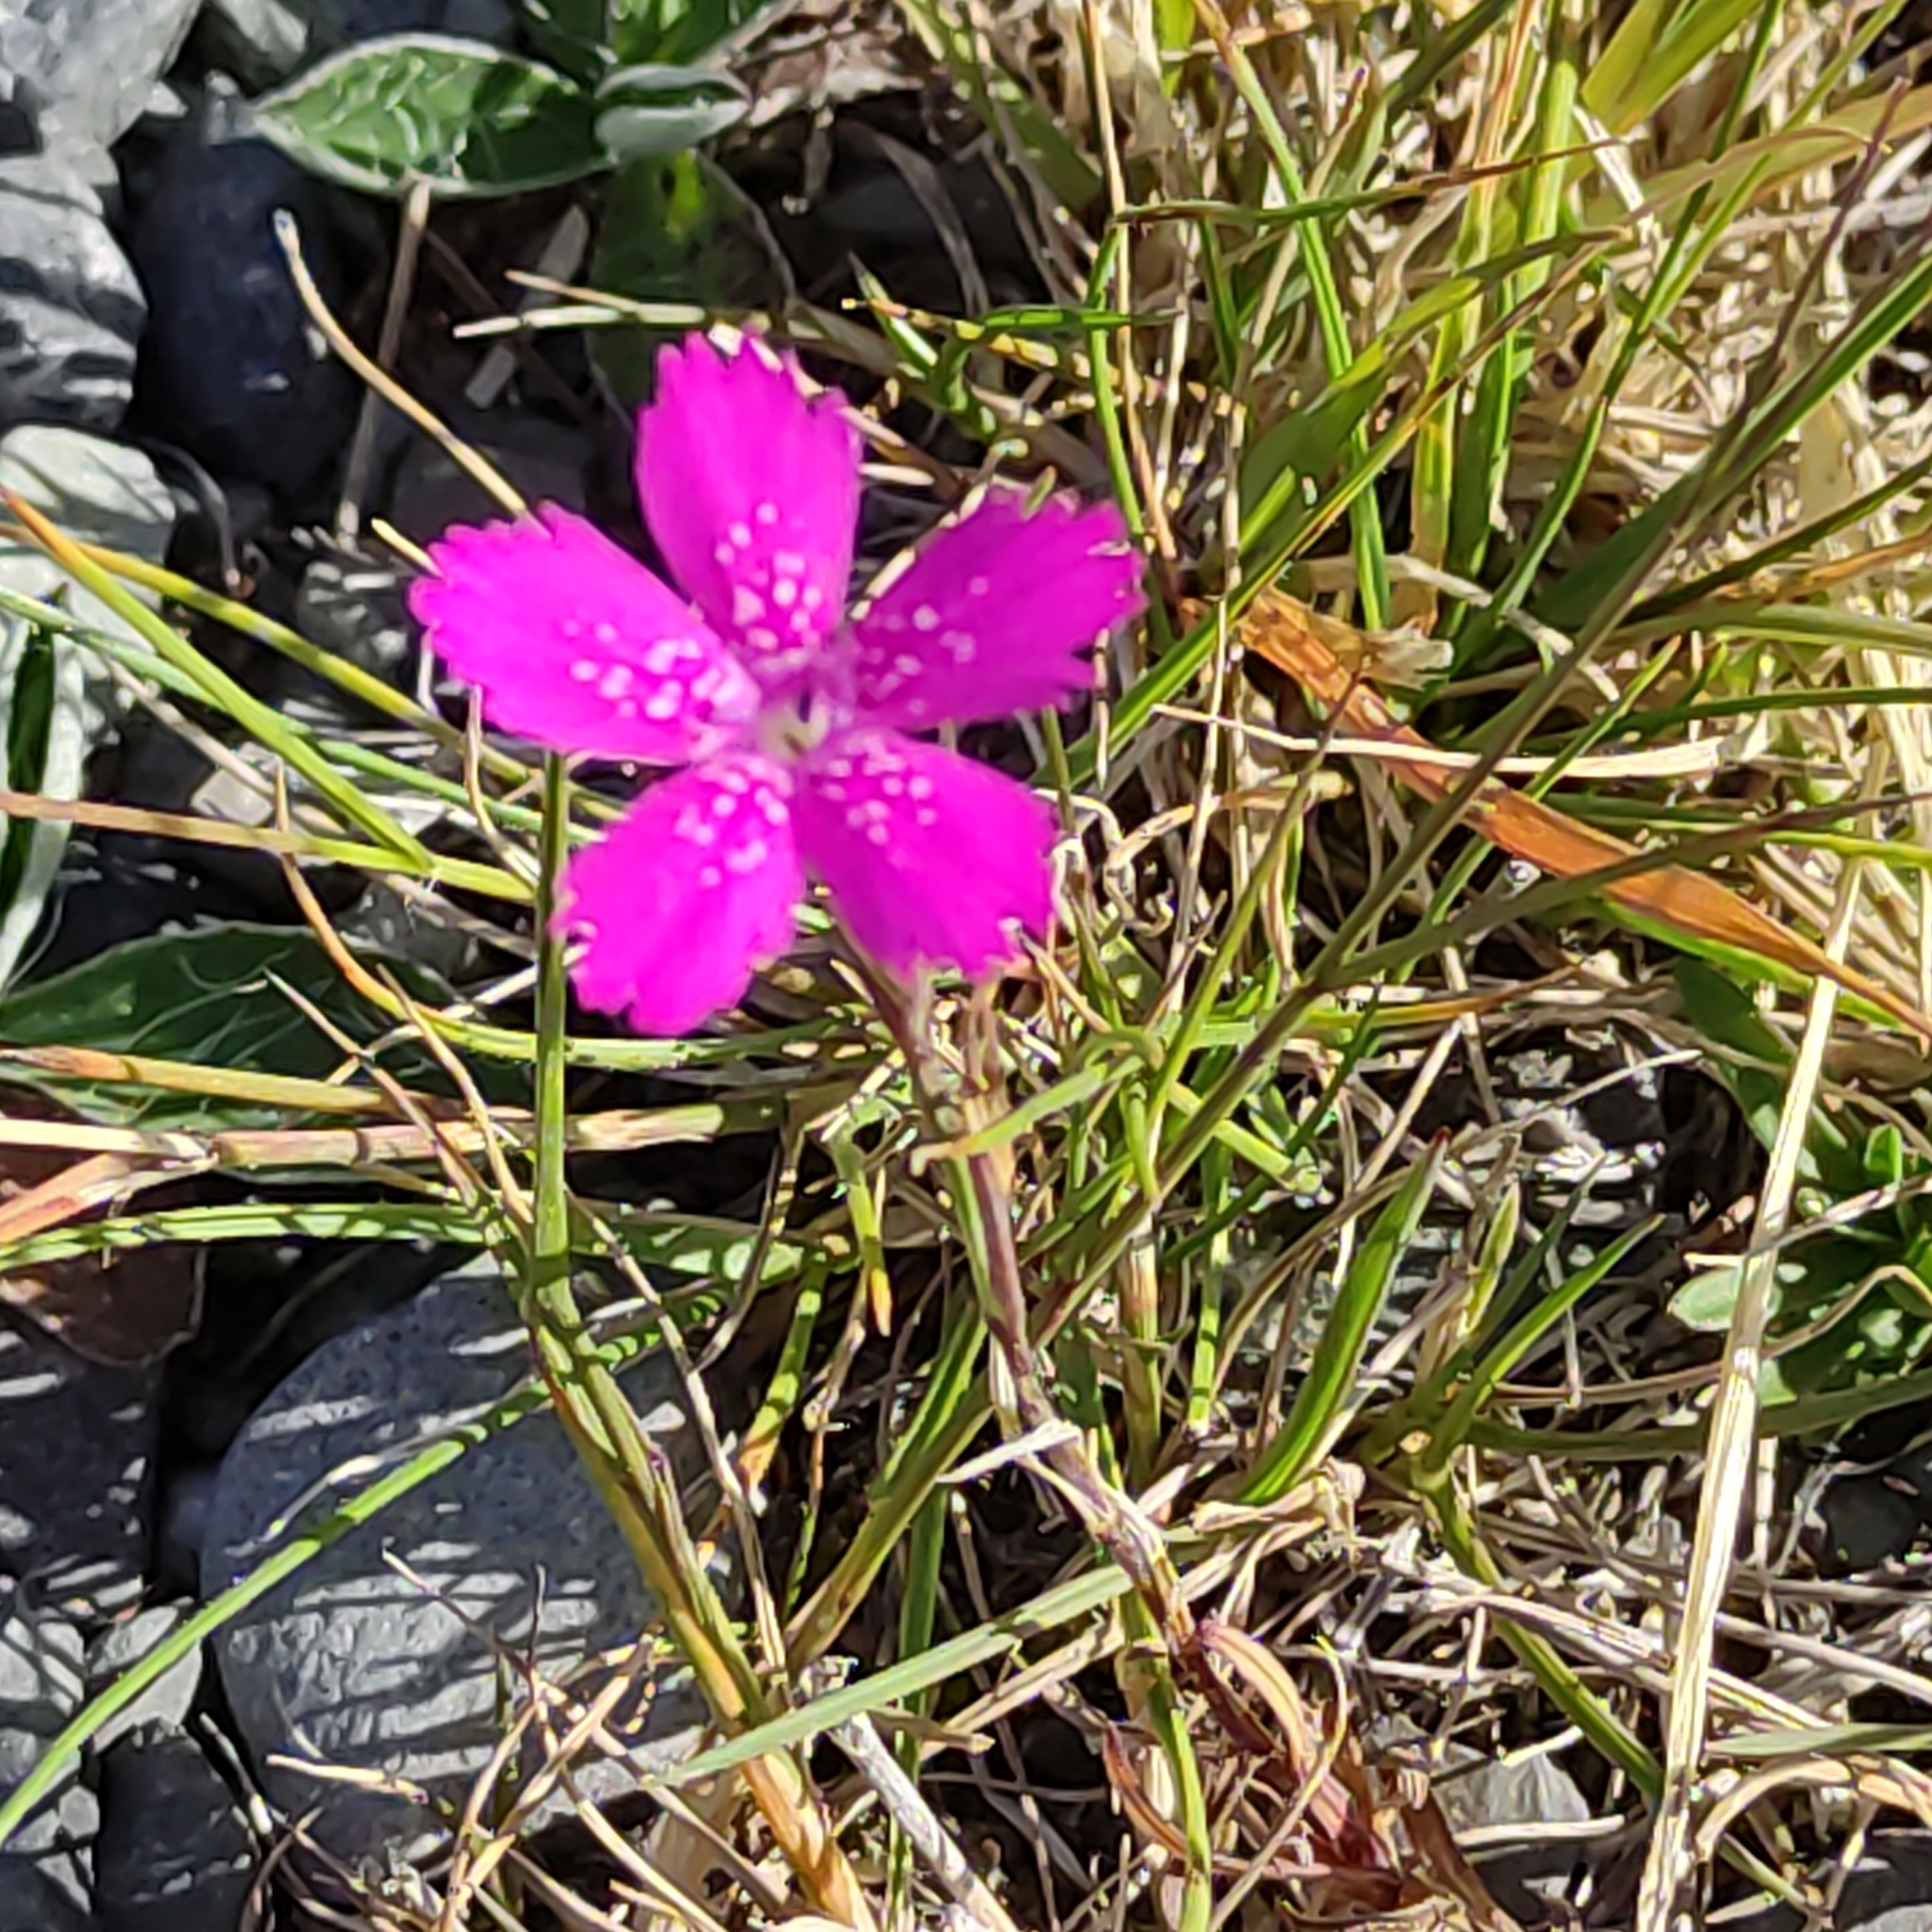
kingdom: Plantae
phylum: Tracheophyta
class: Magnoliopsida
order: Caryophyllales
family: Caryophyllaceae
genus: Dianthus
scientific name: Dianthus armeria
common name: Deptford pink
